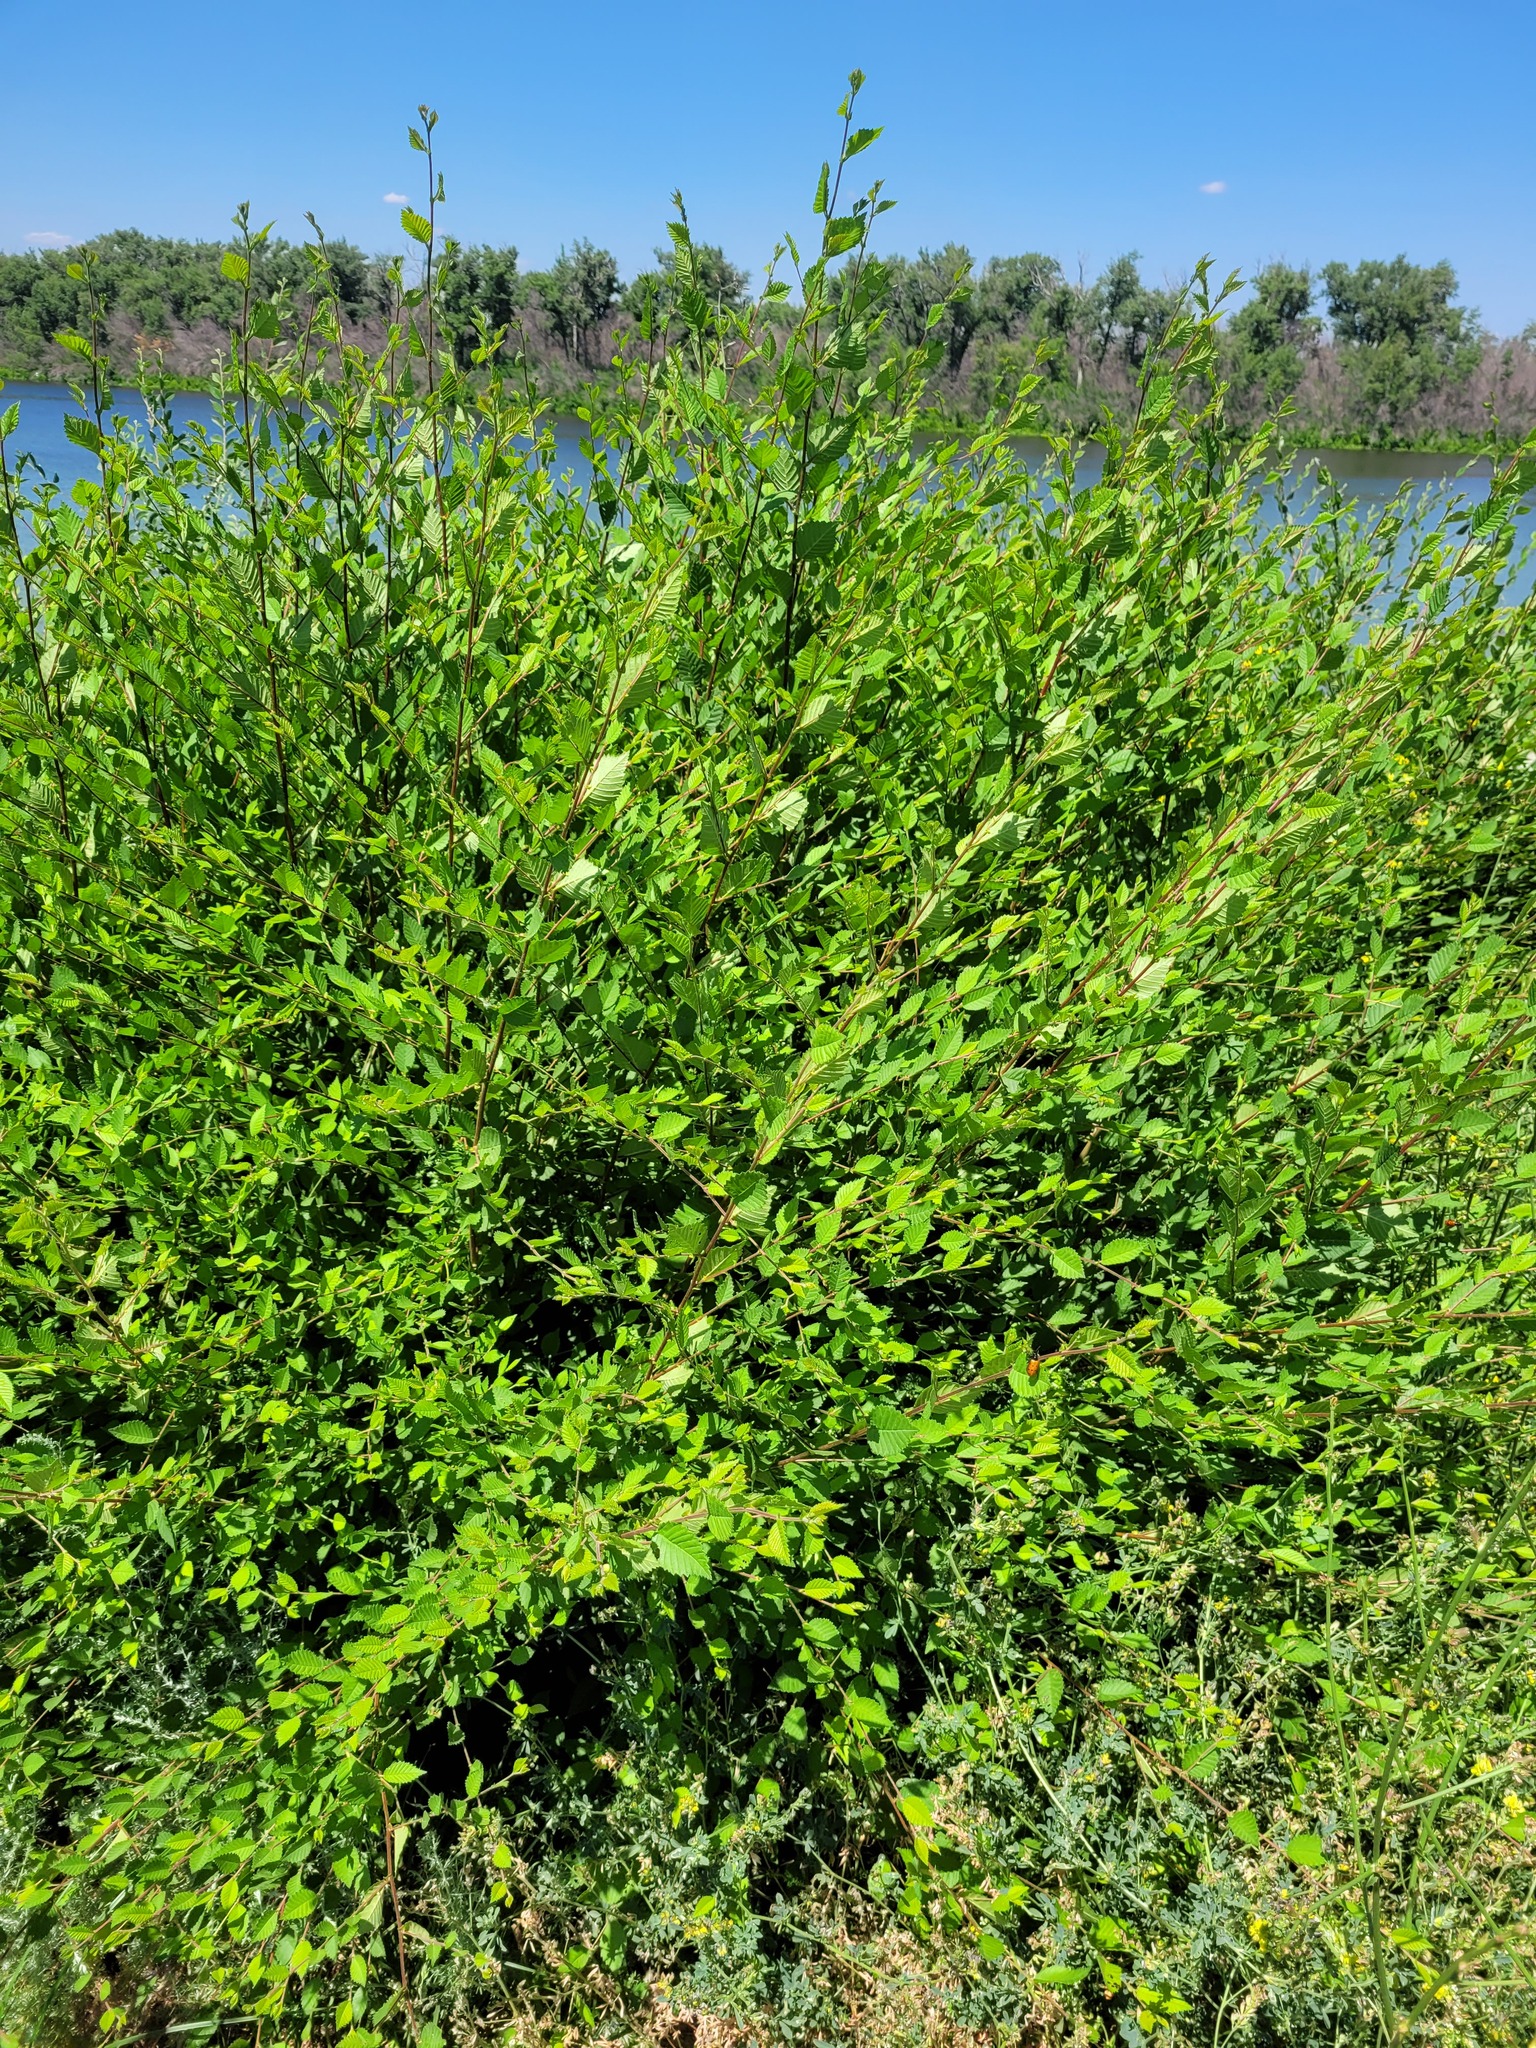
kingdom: Plantae
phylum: Tracheophyta
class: Magnoliopsida
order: Rosales
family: Ulmaceae
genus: Ulmus
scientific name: Ulmus pumila
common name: Siberian elm
